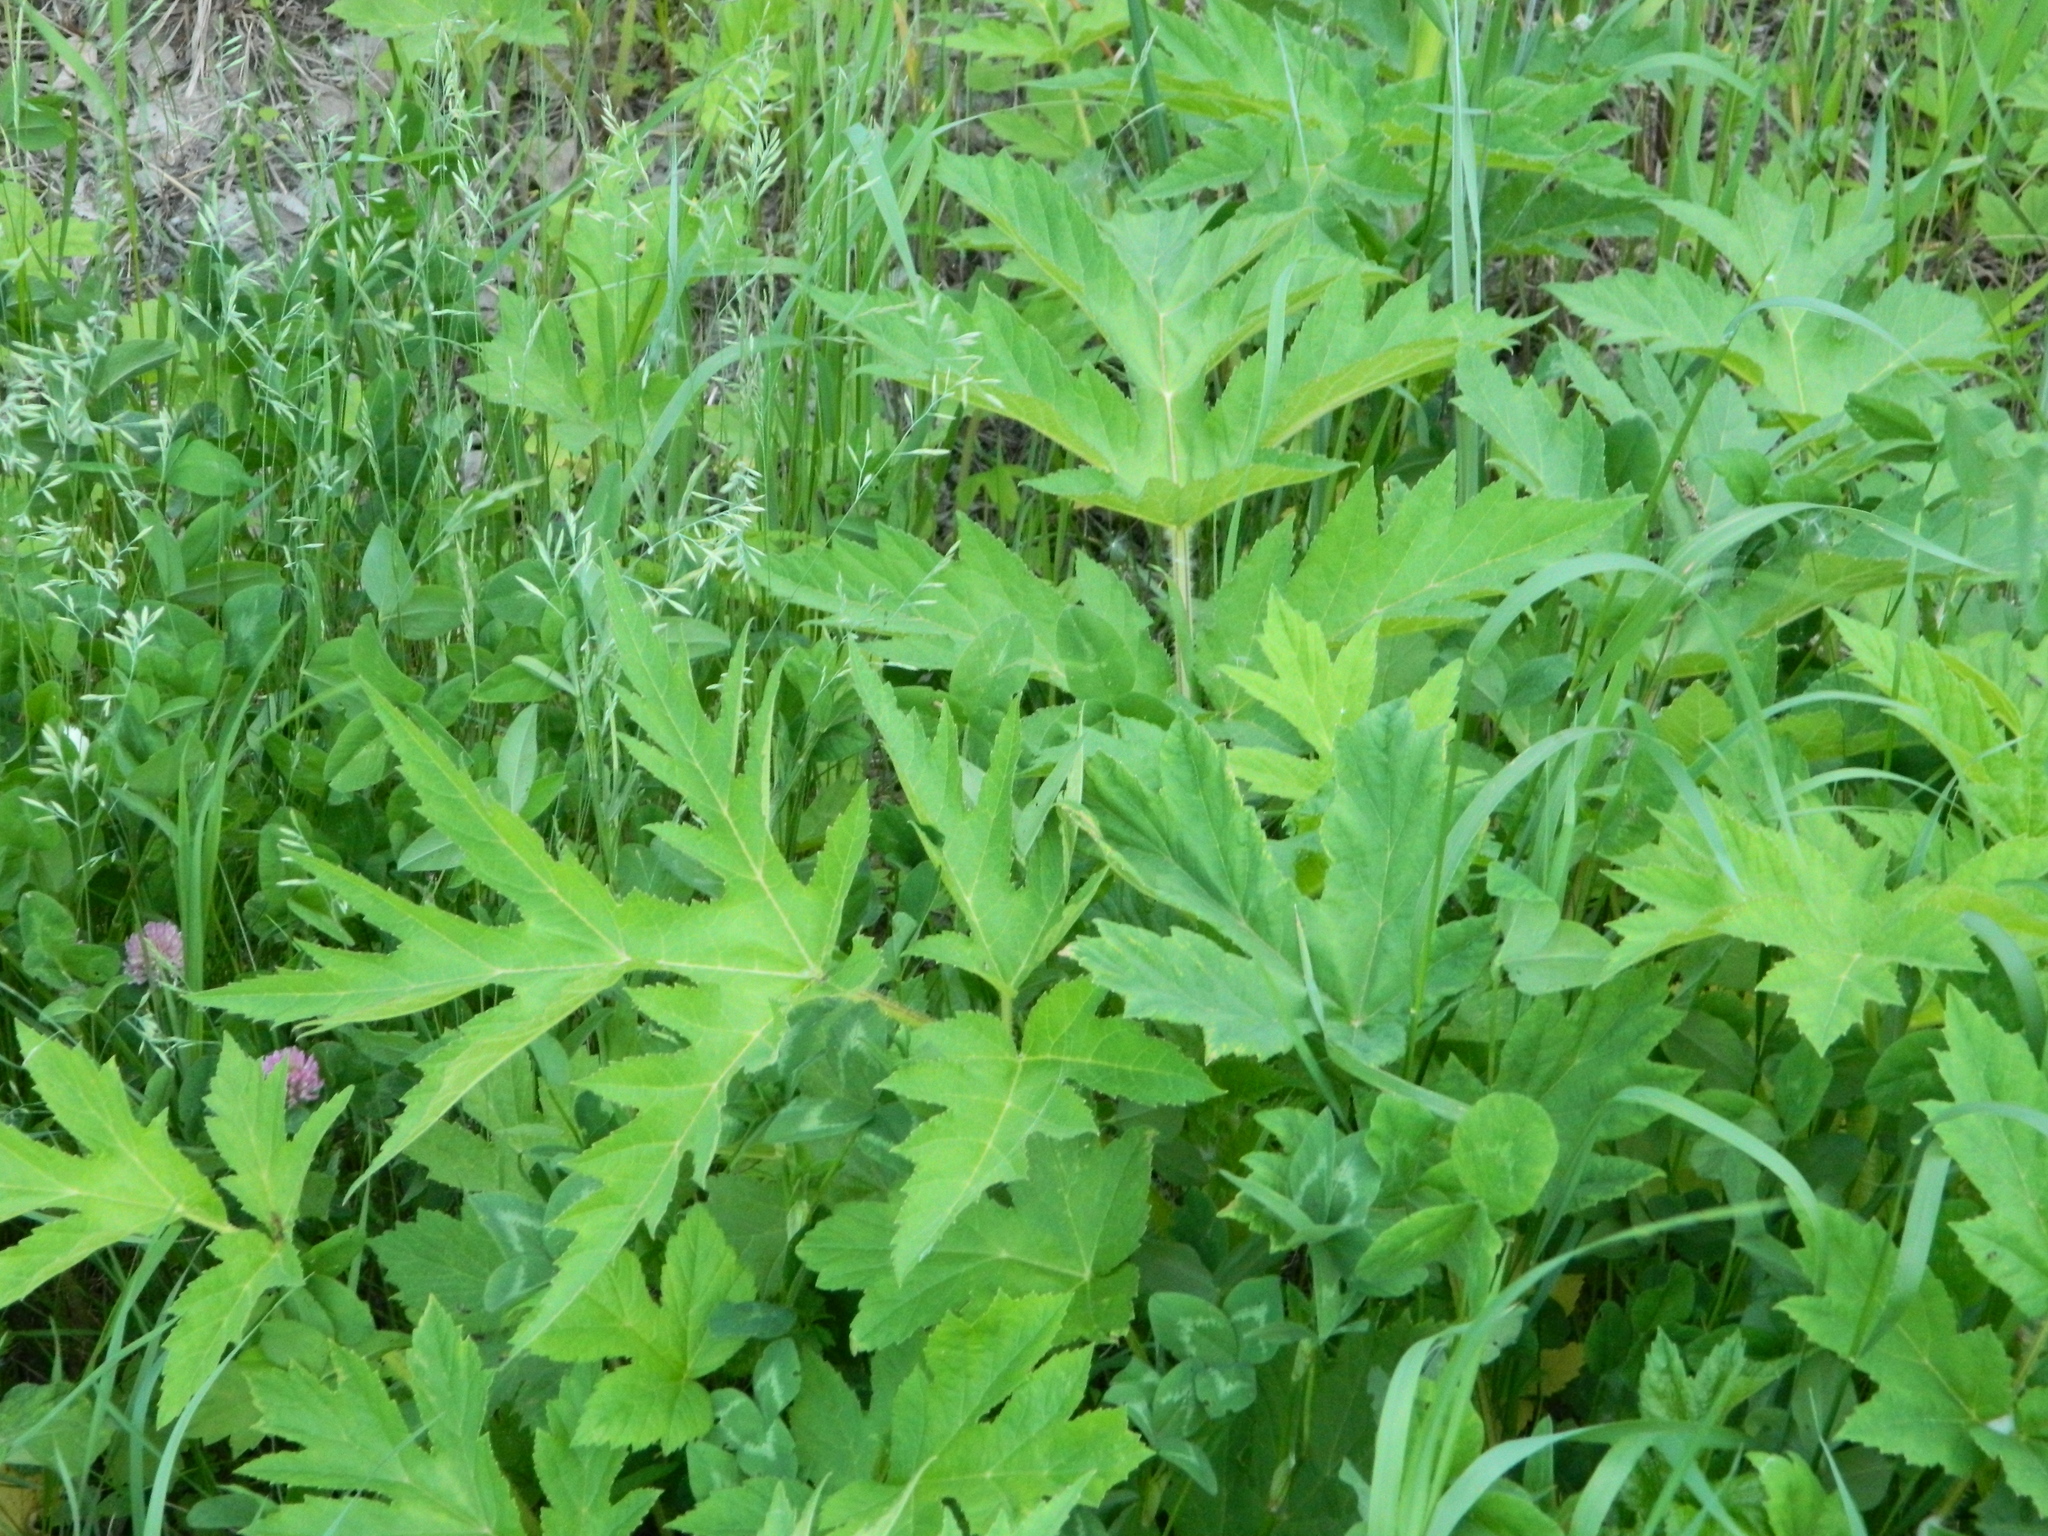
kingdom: Plantae
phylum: Tracheophyta
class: Magnoliopsida
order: Apiales
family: Apiaceae
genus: Heracleum
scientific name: Heracleum dissectum
